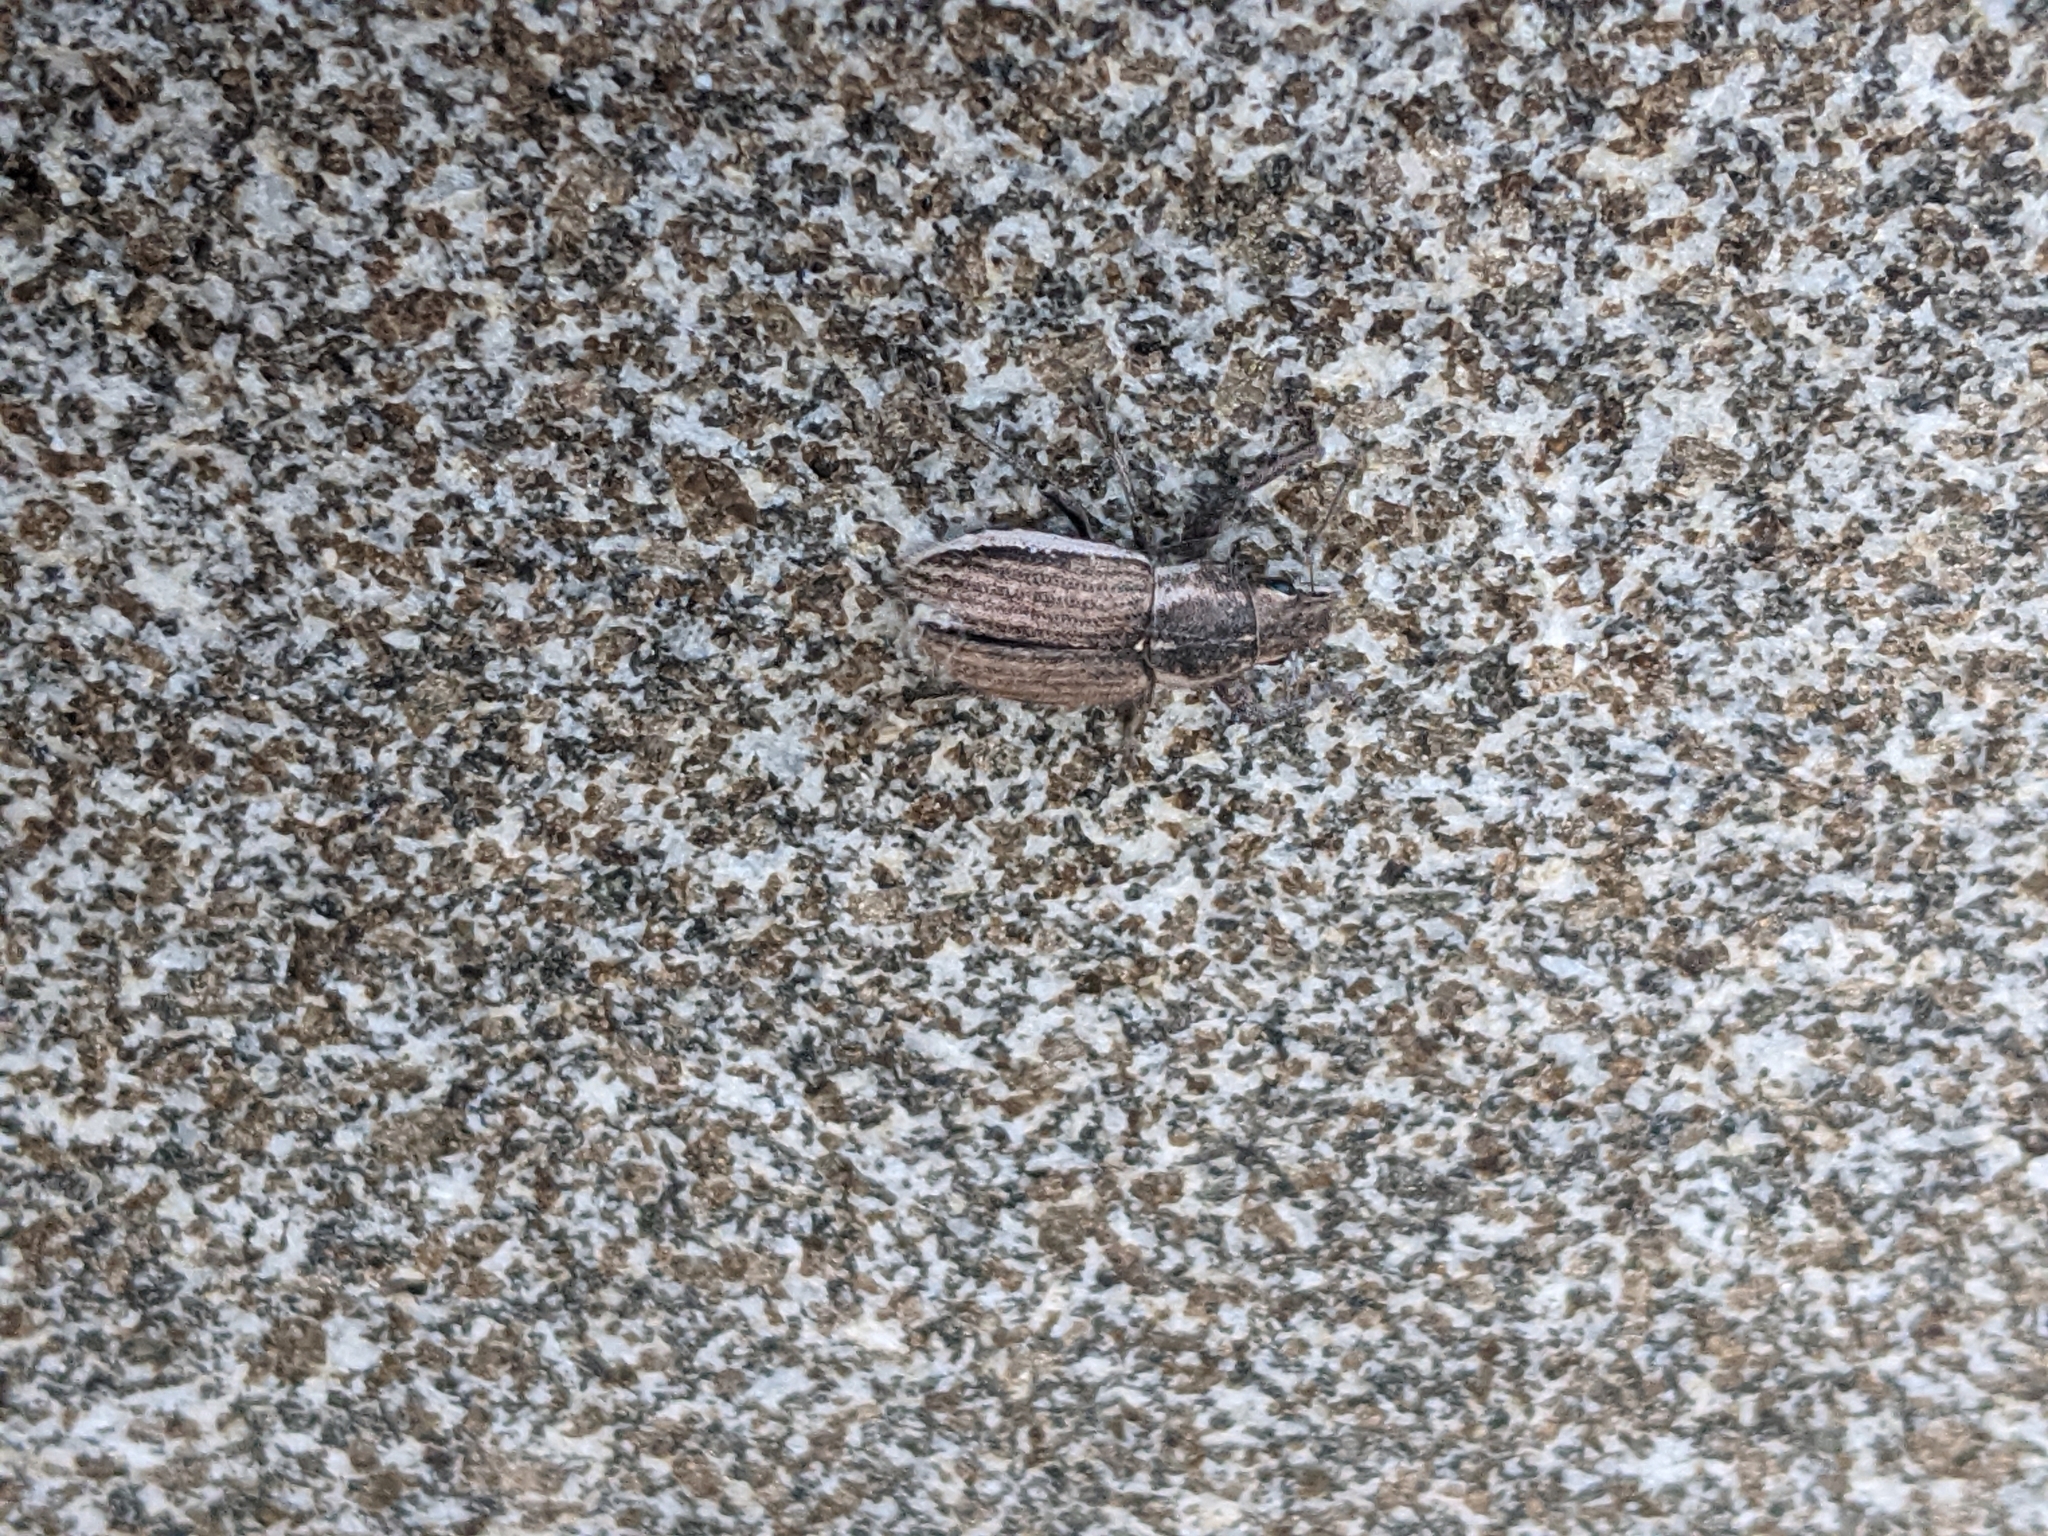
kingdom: Animalia
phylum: Arthropoda
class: Insecta
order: Coleoptera
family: Curculionidae
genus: Naupactus
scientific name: Naupactus leucoloma
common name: Whitefringed beetle
